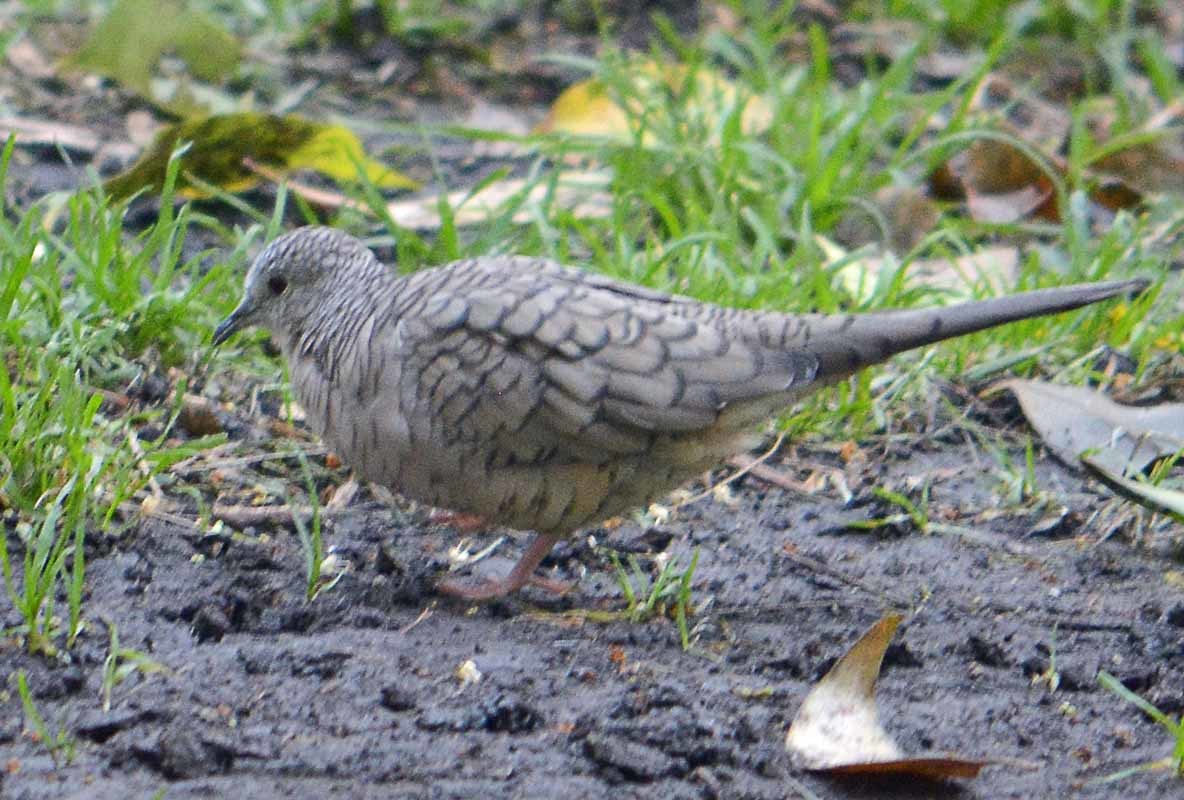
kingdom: Animalia
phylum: Chordata
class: Aves
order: Columbiformes
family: Columbidae
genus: Columbina
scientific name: Columbina inca
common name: Inca dove
